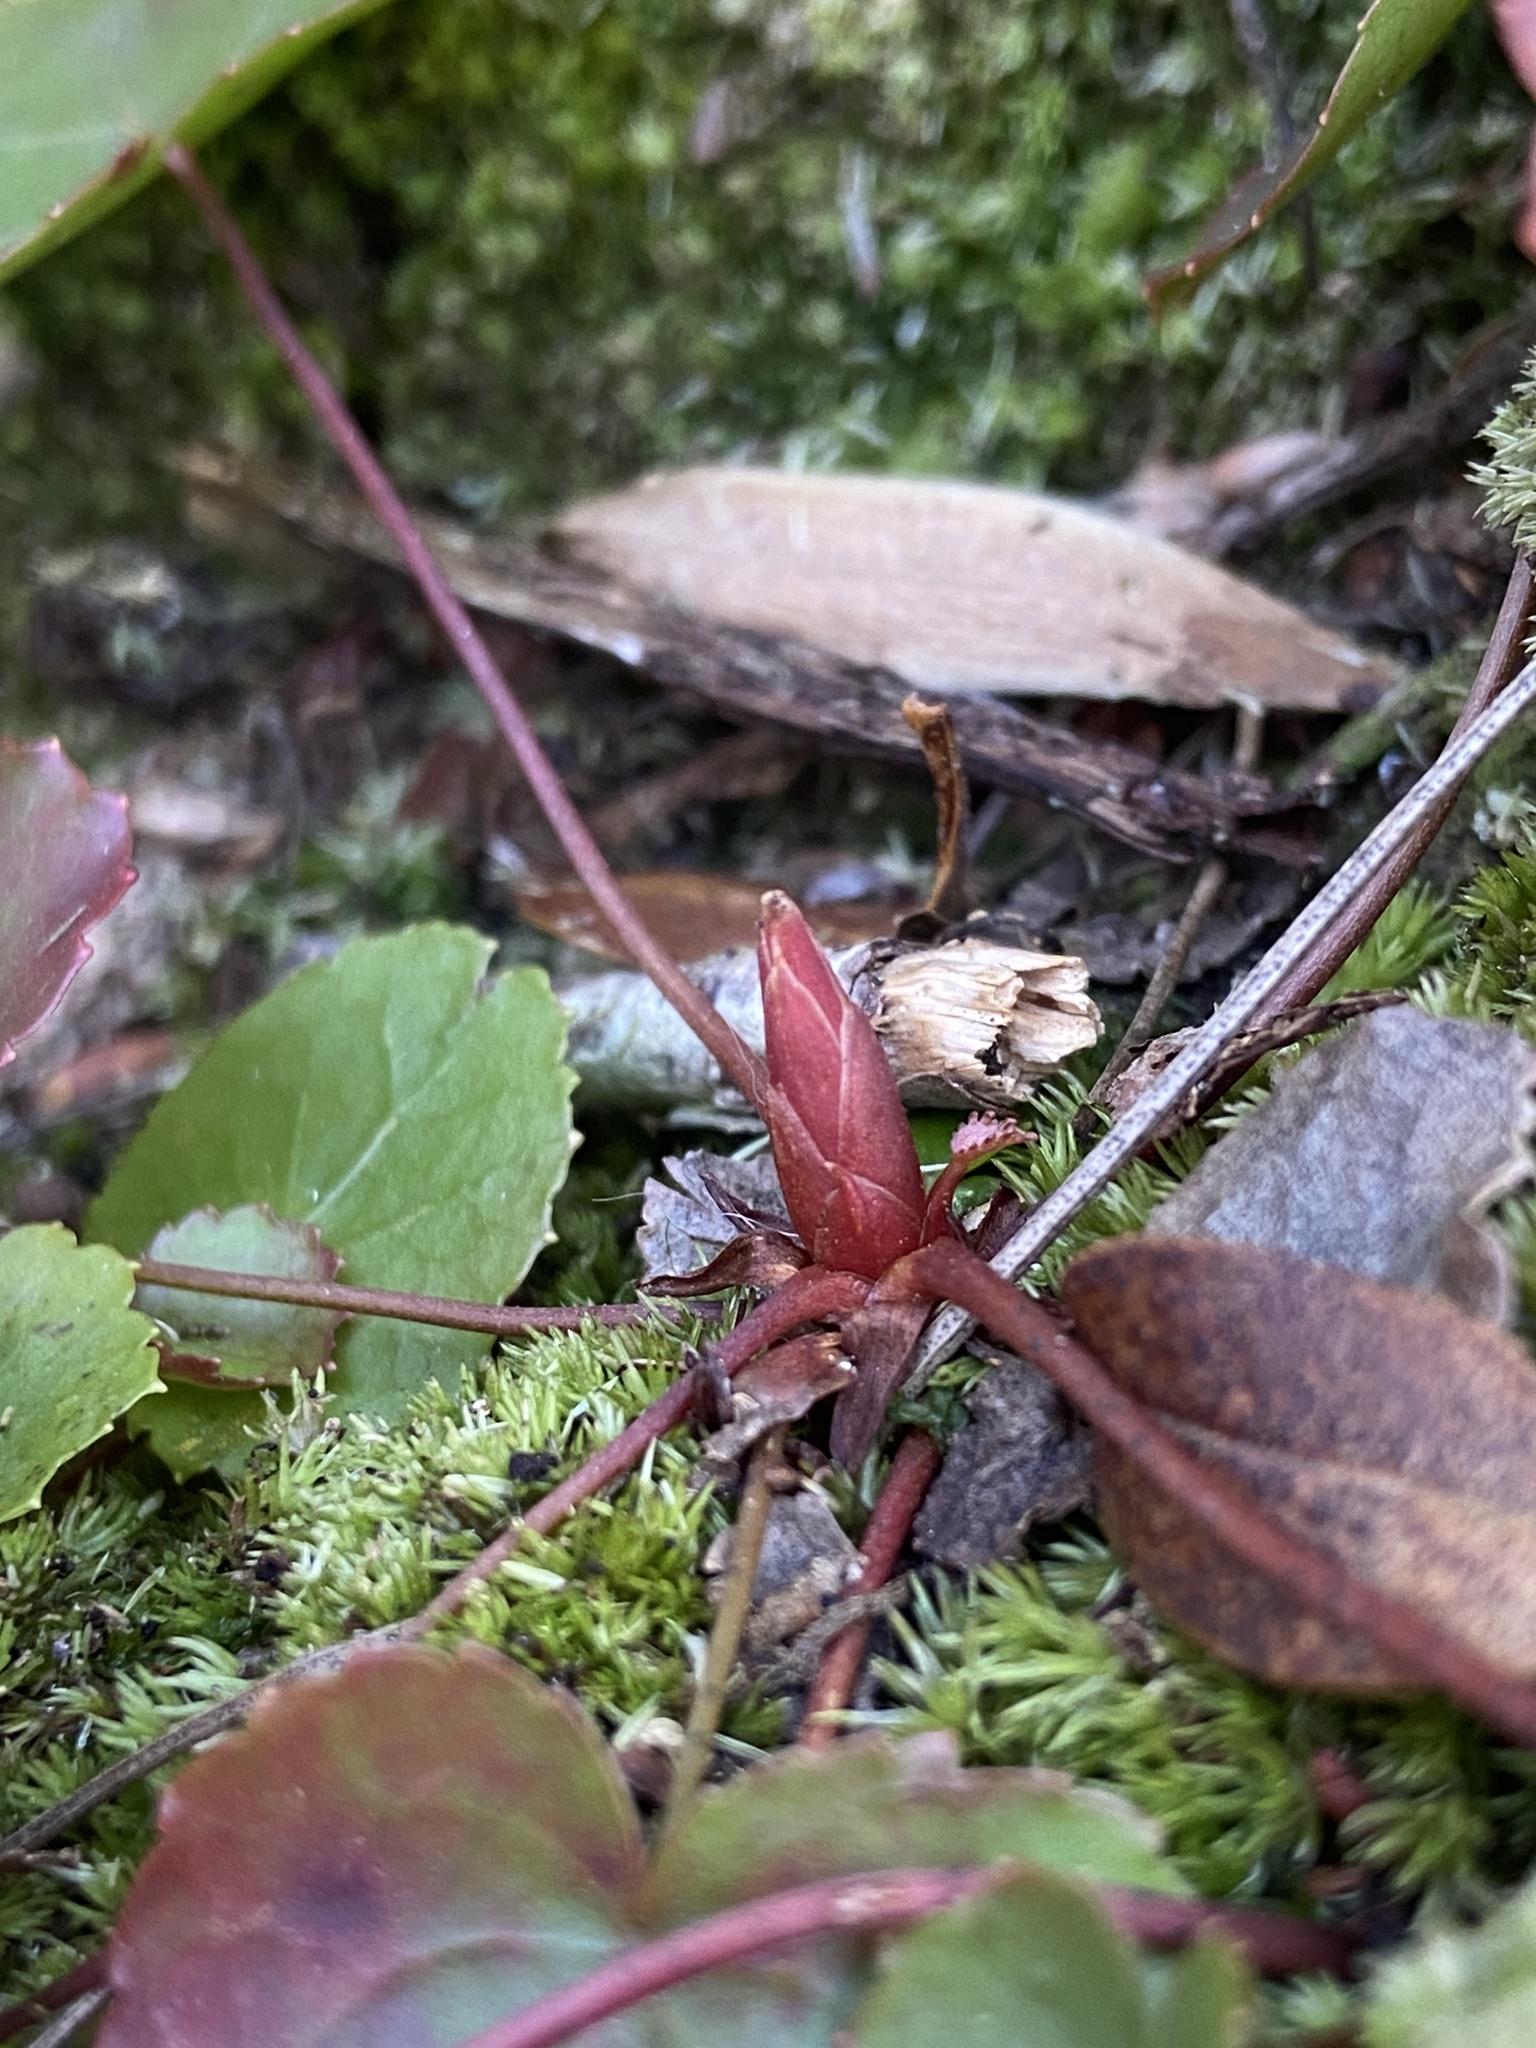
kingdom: Plantae
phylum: Tracheophyta
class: Magnoliopsida
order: Ericales
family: Diapensiaceae
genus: Galax
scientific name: Galax urceolata
